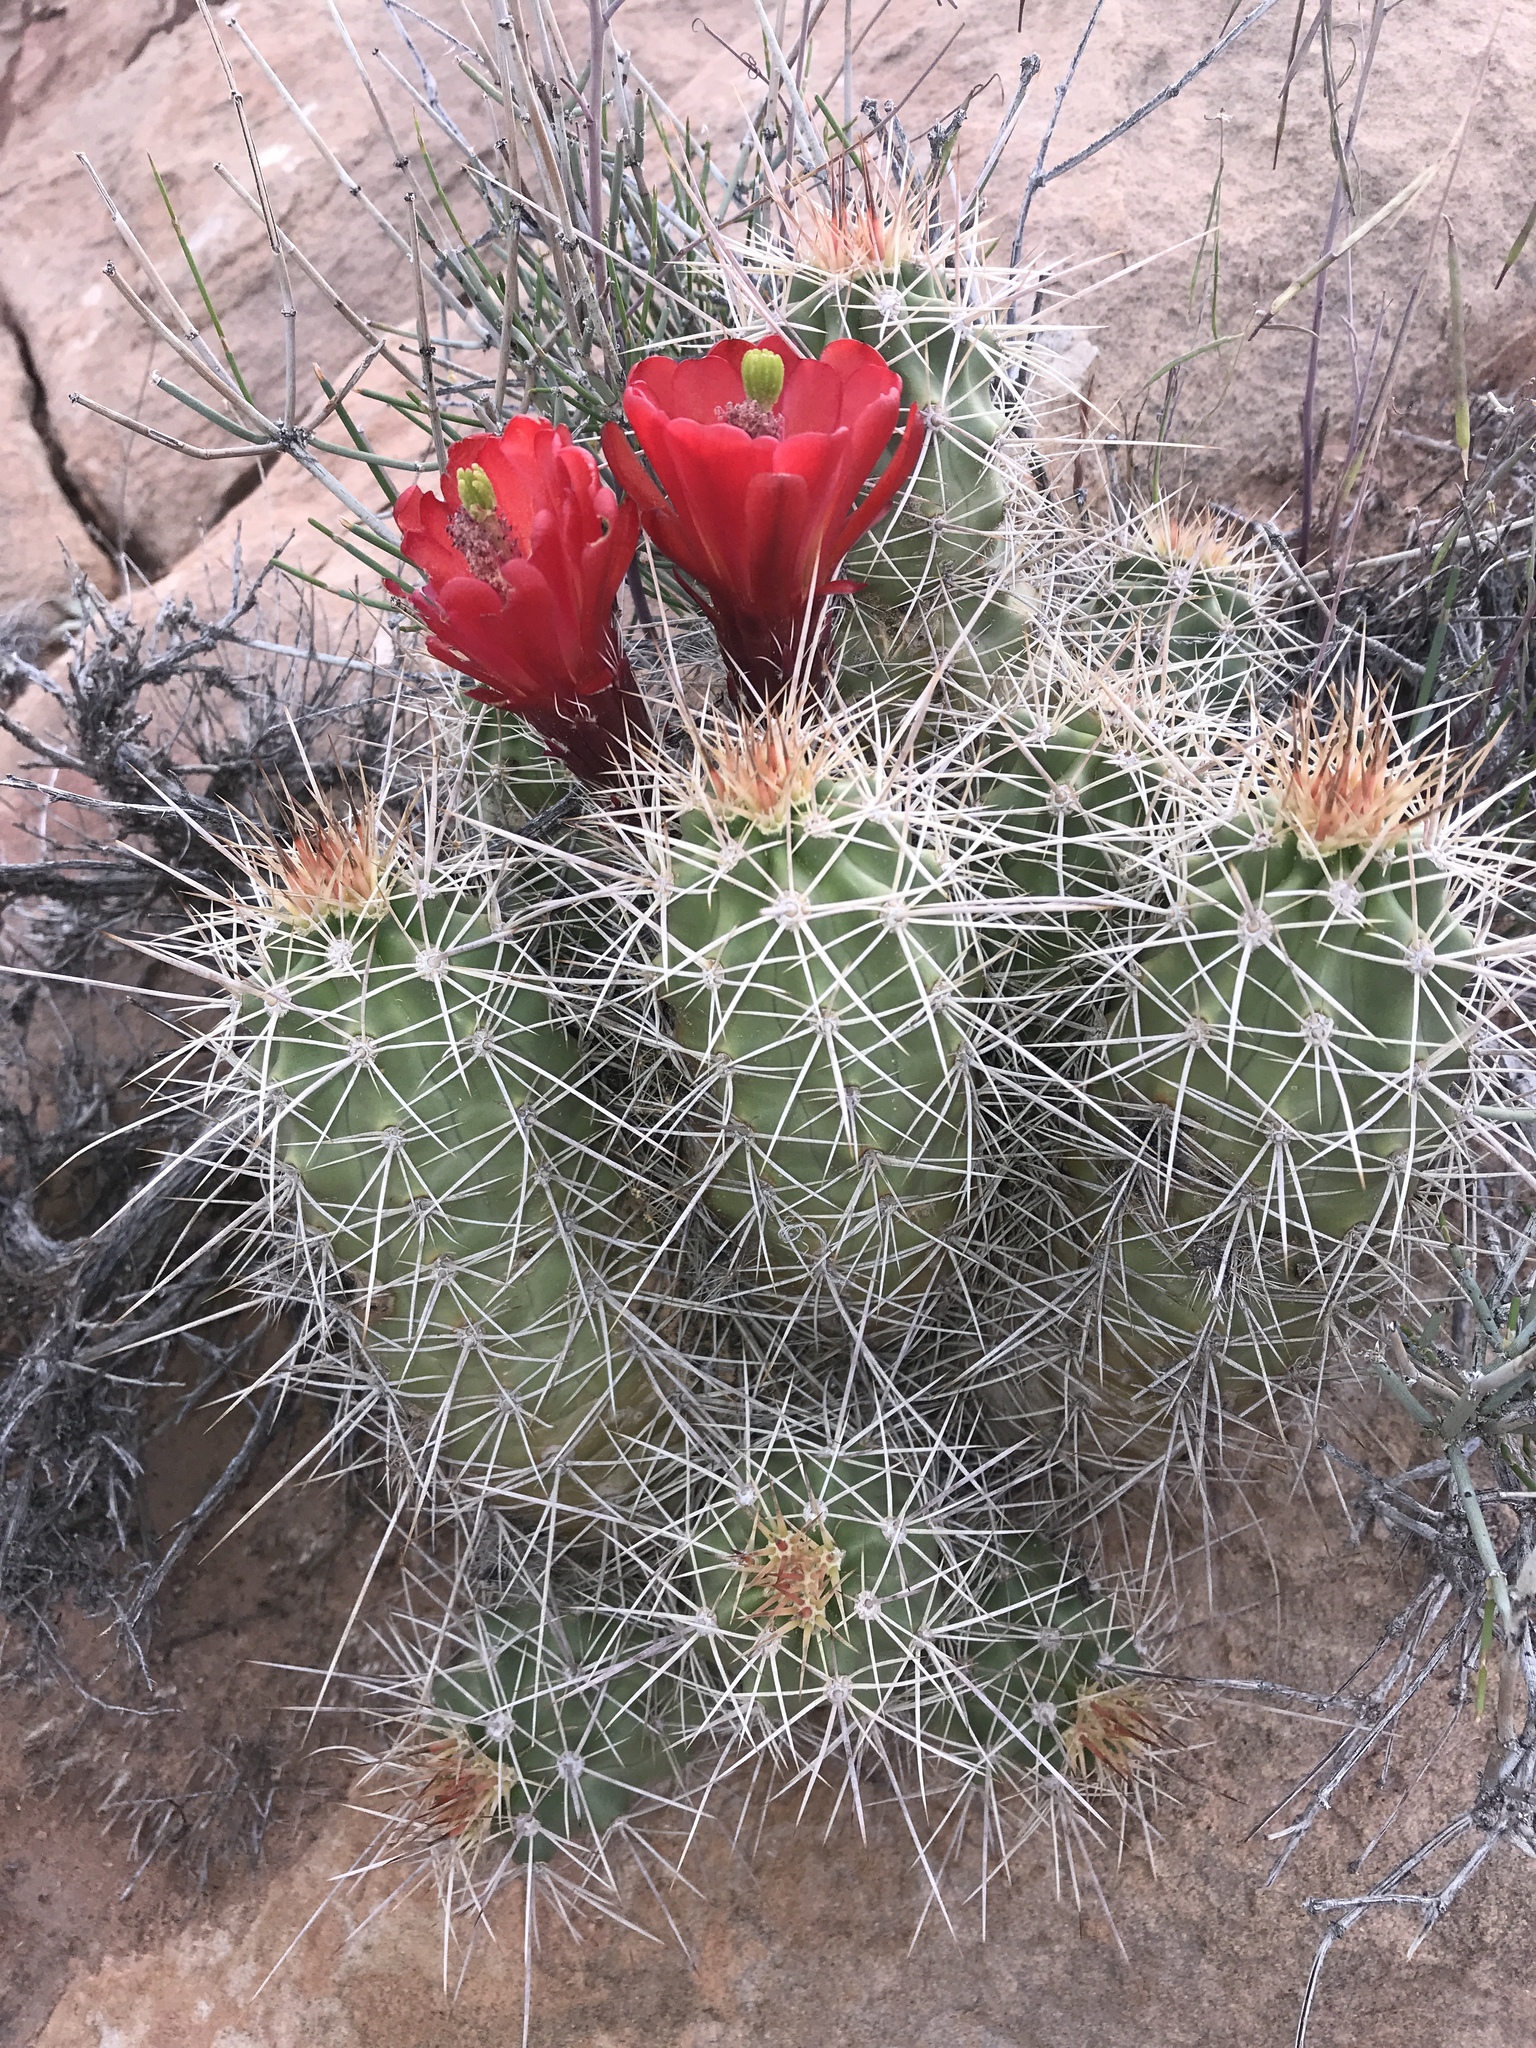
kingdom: Plantae
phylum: Tracheophyta
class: Magnoliopsida
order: Caryophyllales
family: Cactaceae
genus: Echinocereus
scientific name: Echinocereus triglochidiatus
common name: Claretcup hedgehog
